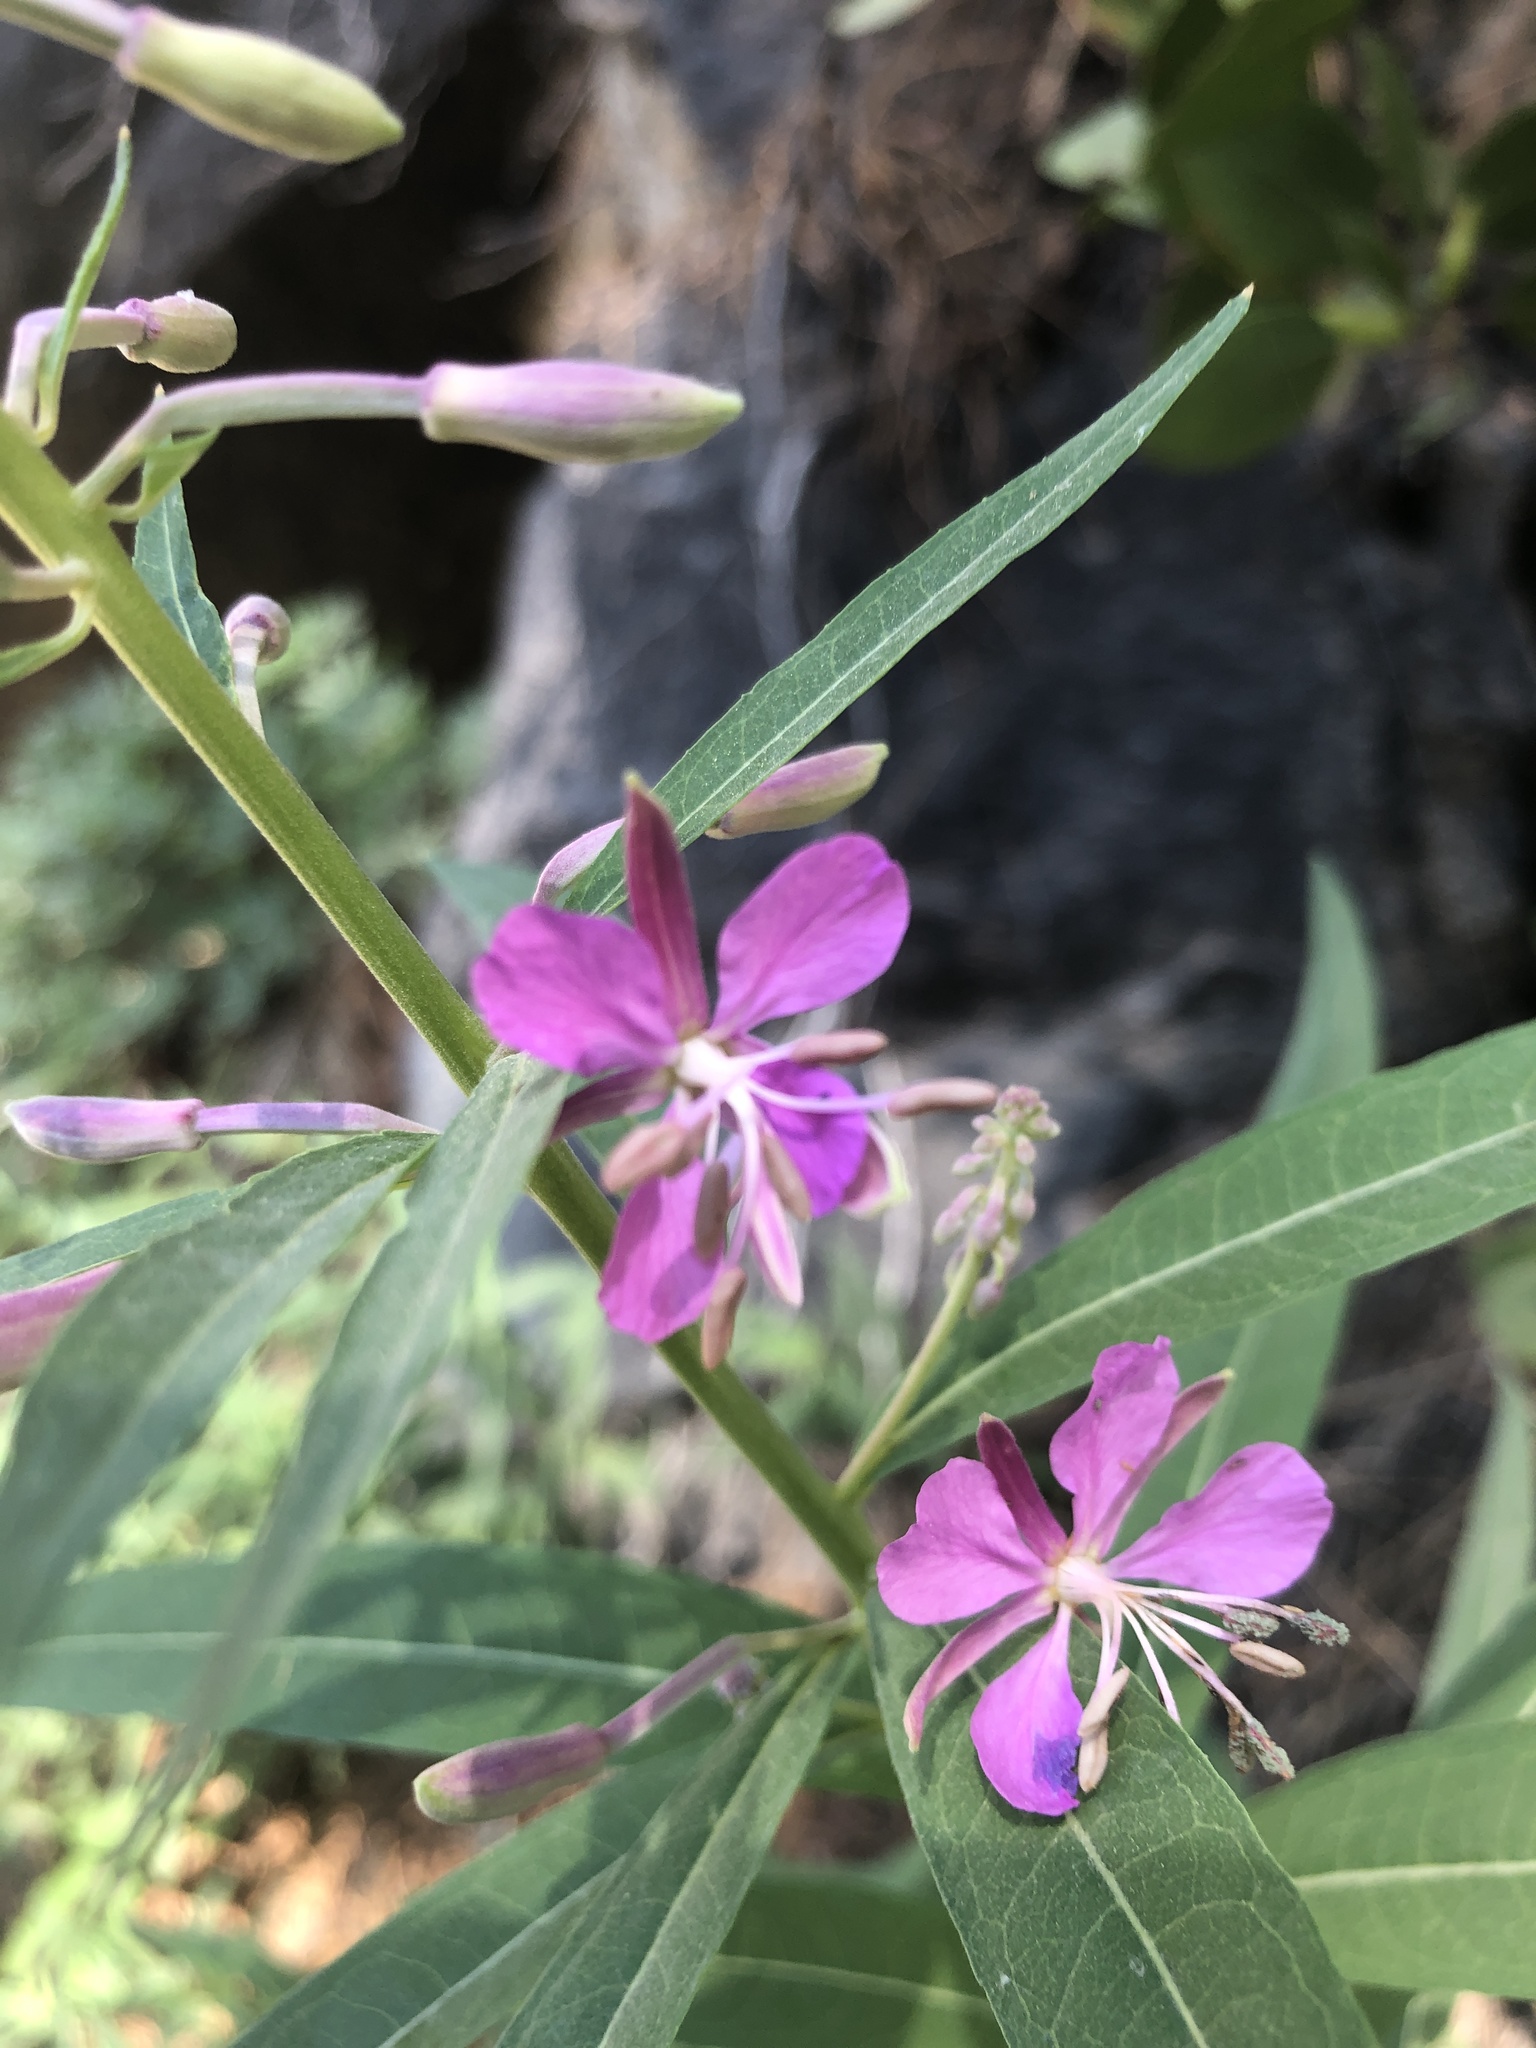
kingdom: Plantae
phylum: Tracheophyta
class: Magnoliopsida
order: Myrtales
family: Onagraceae
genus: Chamaenerion
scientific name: Chamaenerion angustifolium
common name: Fireweed
